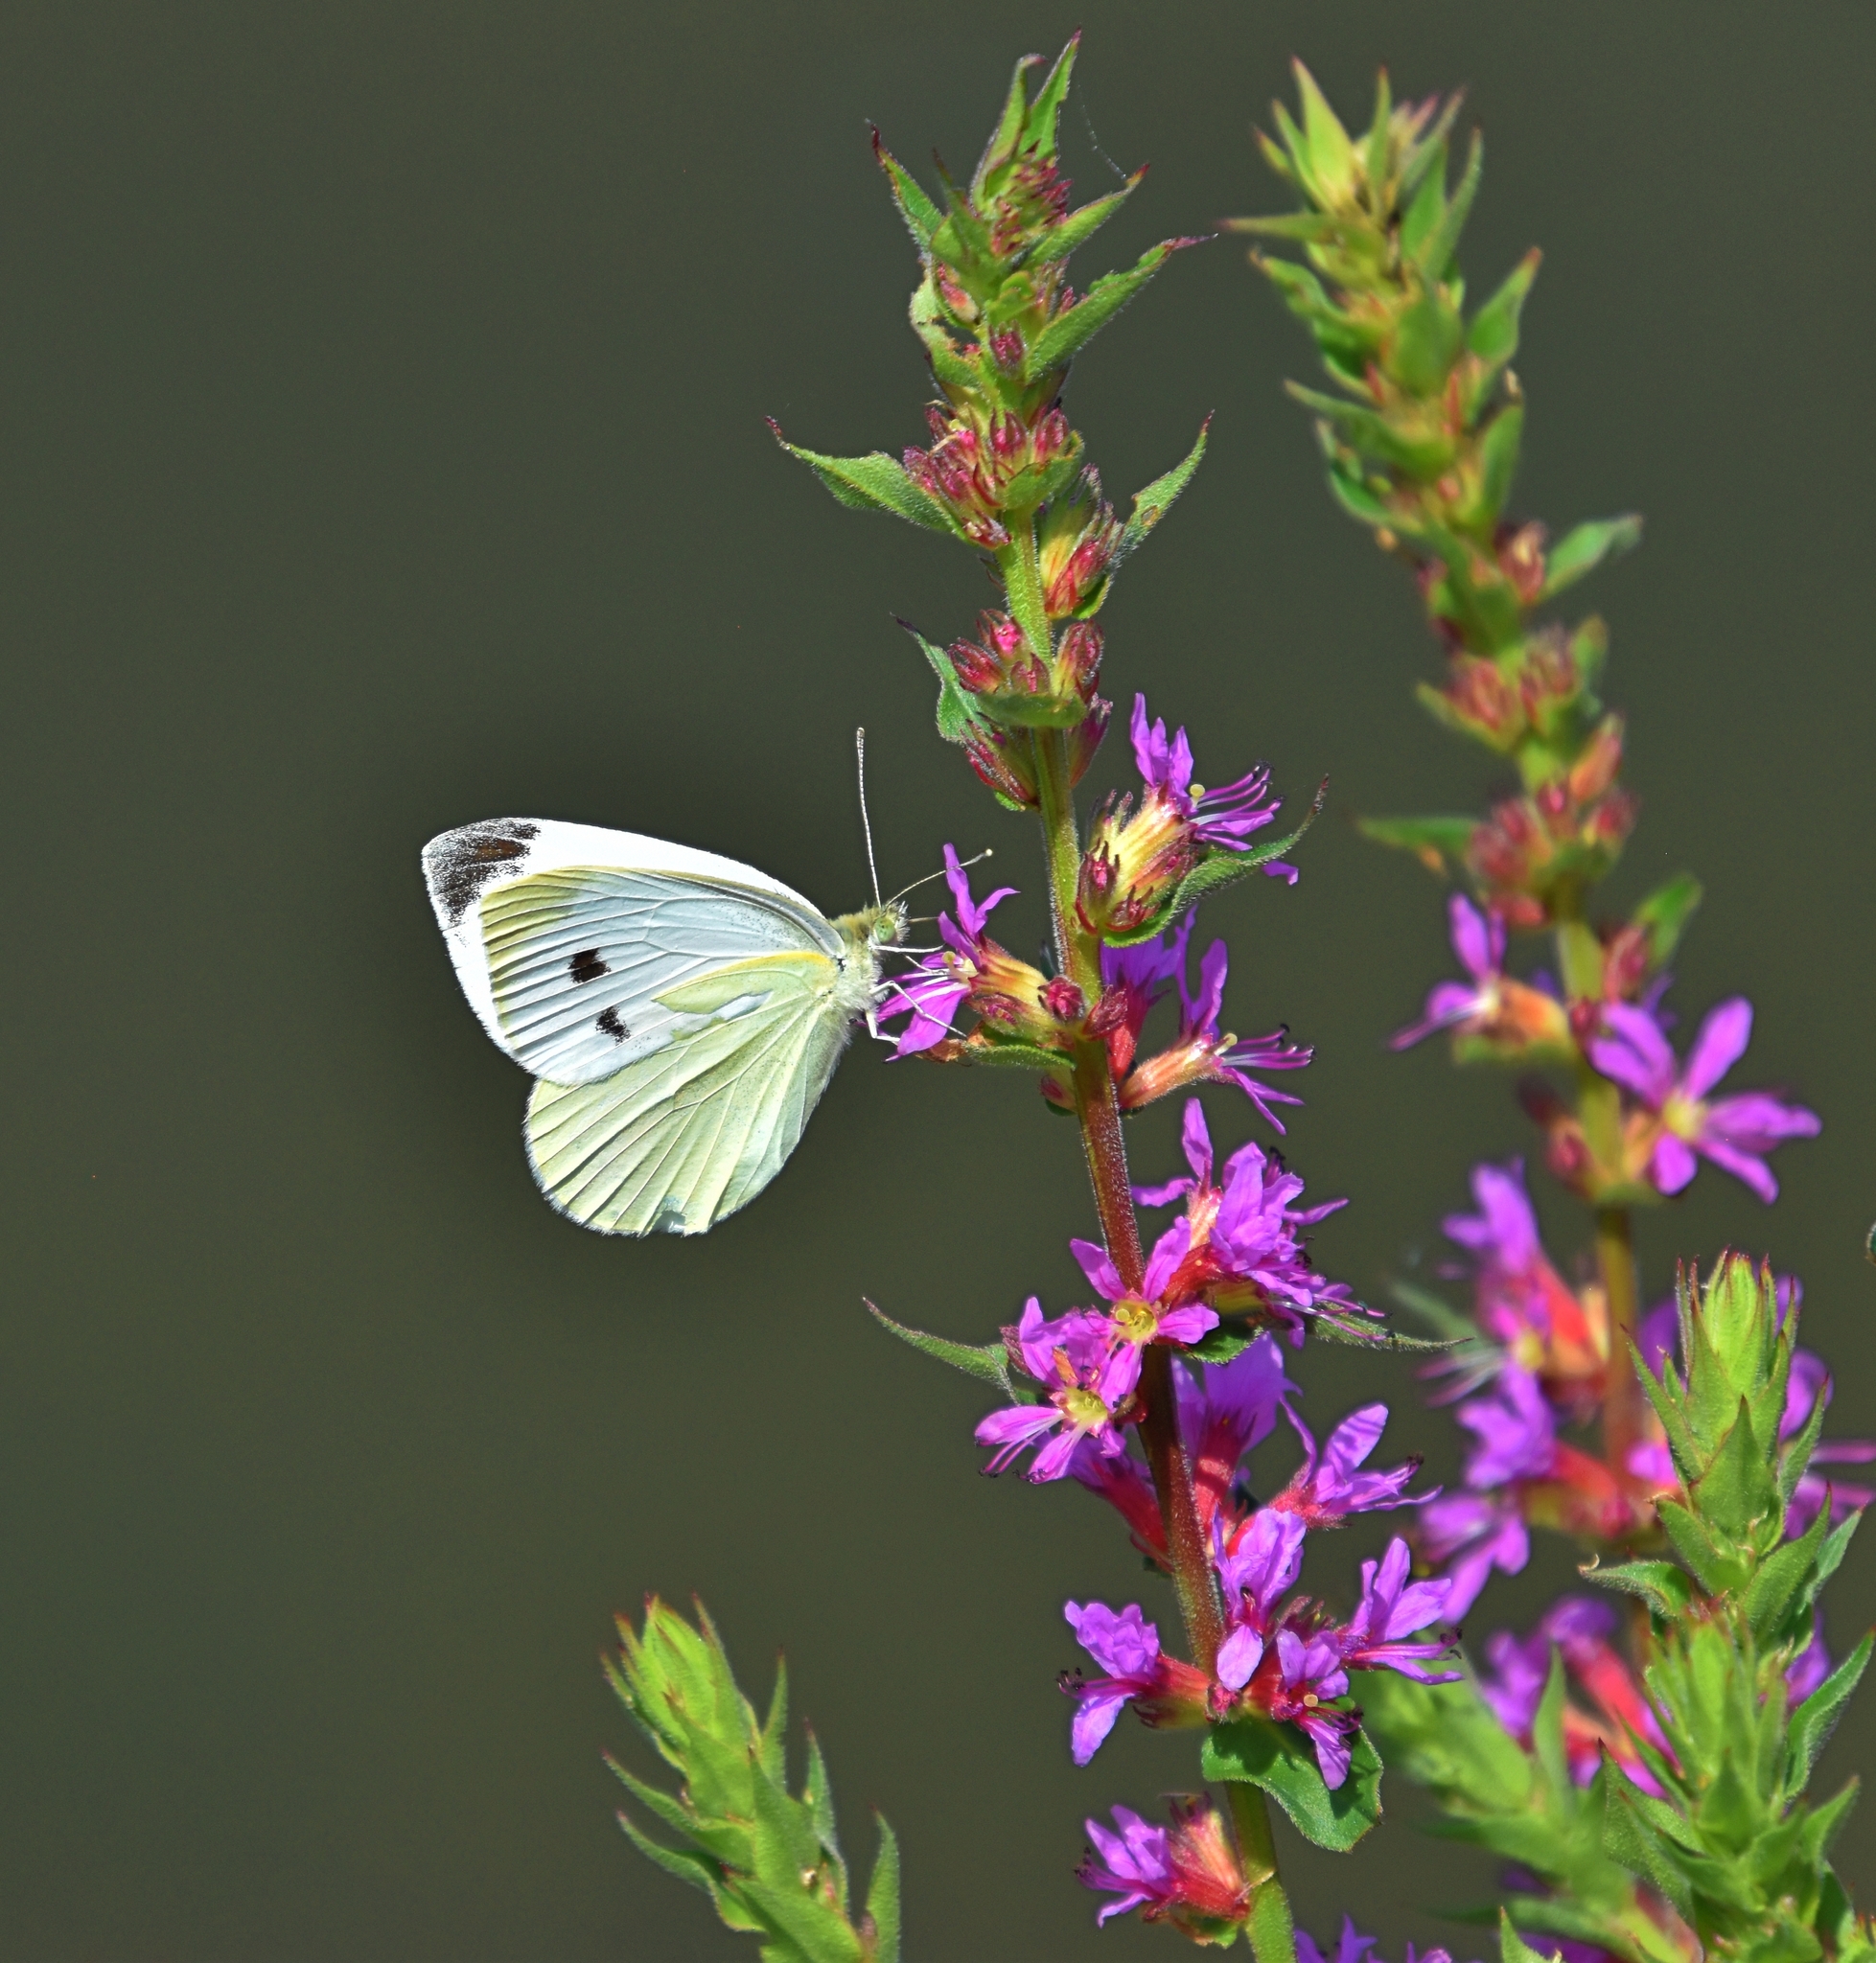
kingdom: Animalia
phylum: Arthropoda
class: Insecta
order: Lepidoptera
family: Pieridae
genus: Pieris
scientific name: Pieris rapae
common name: Small white
